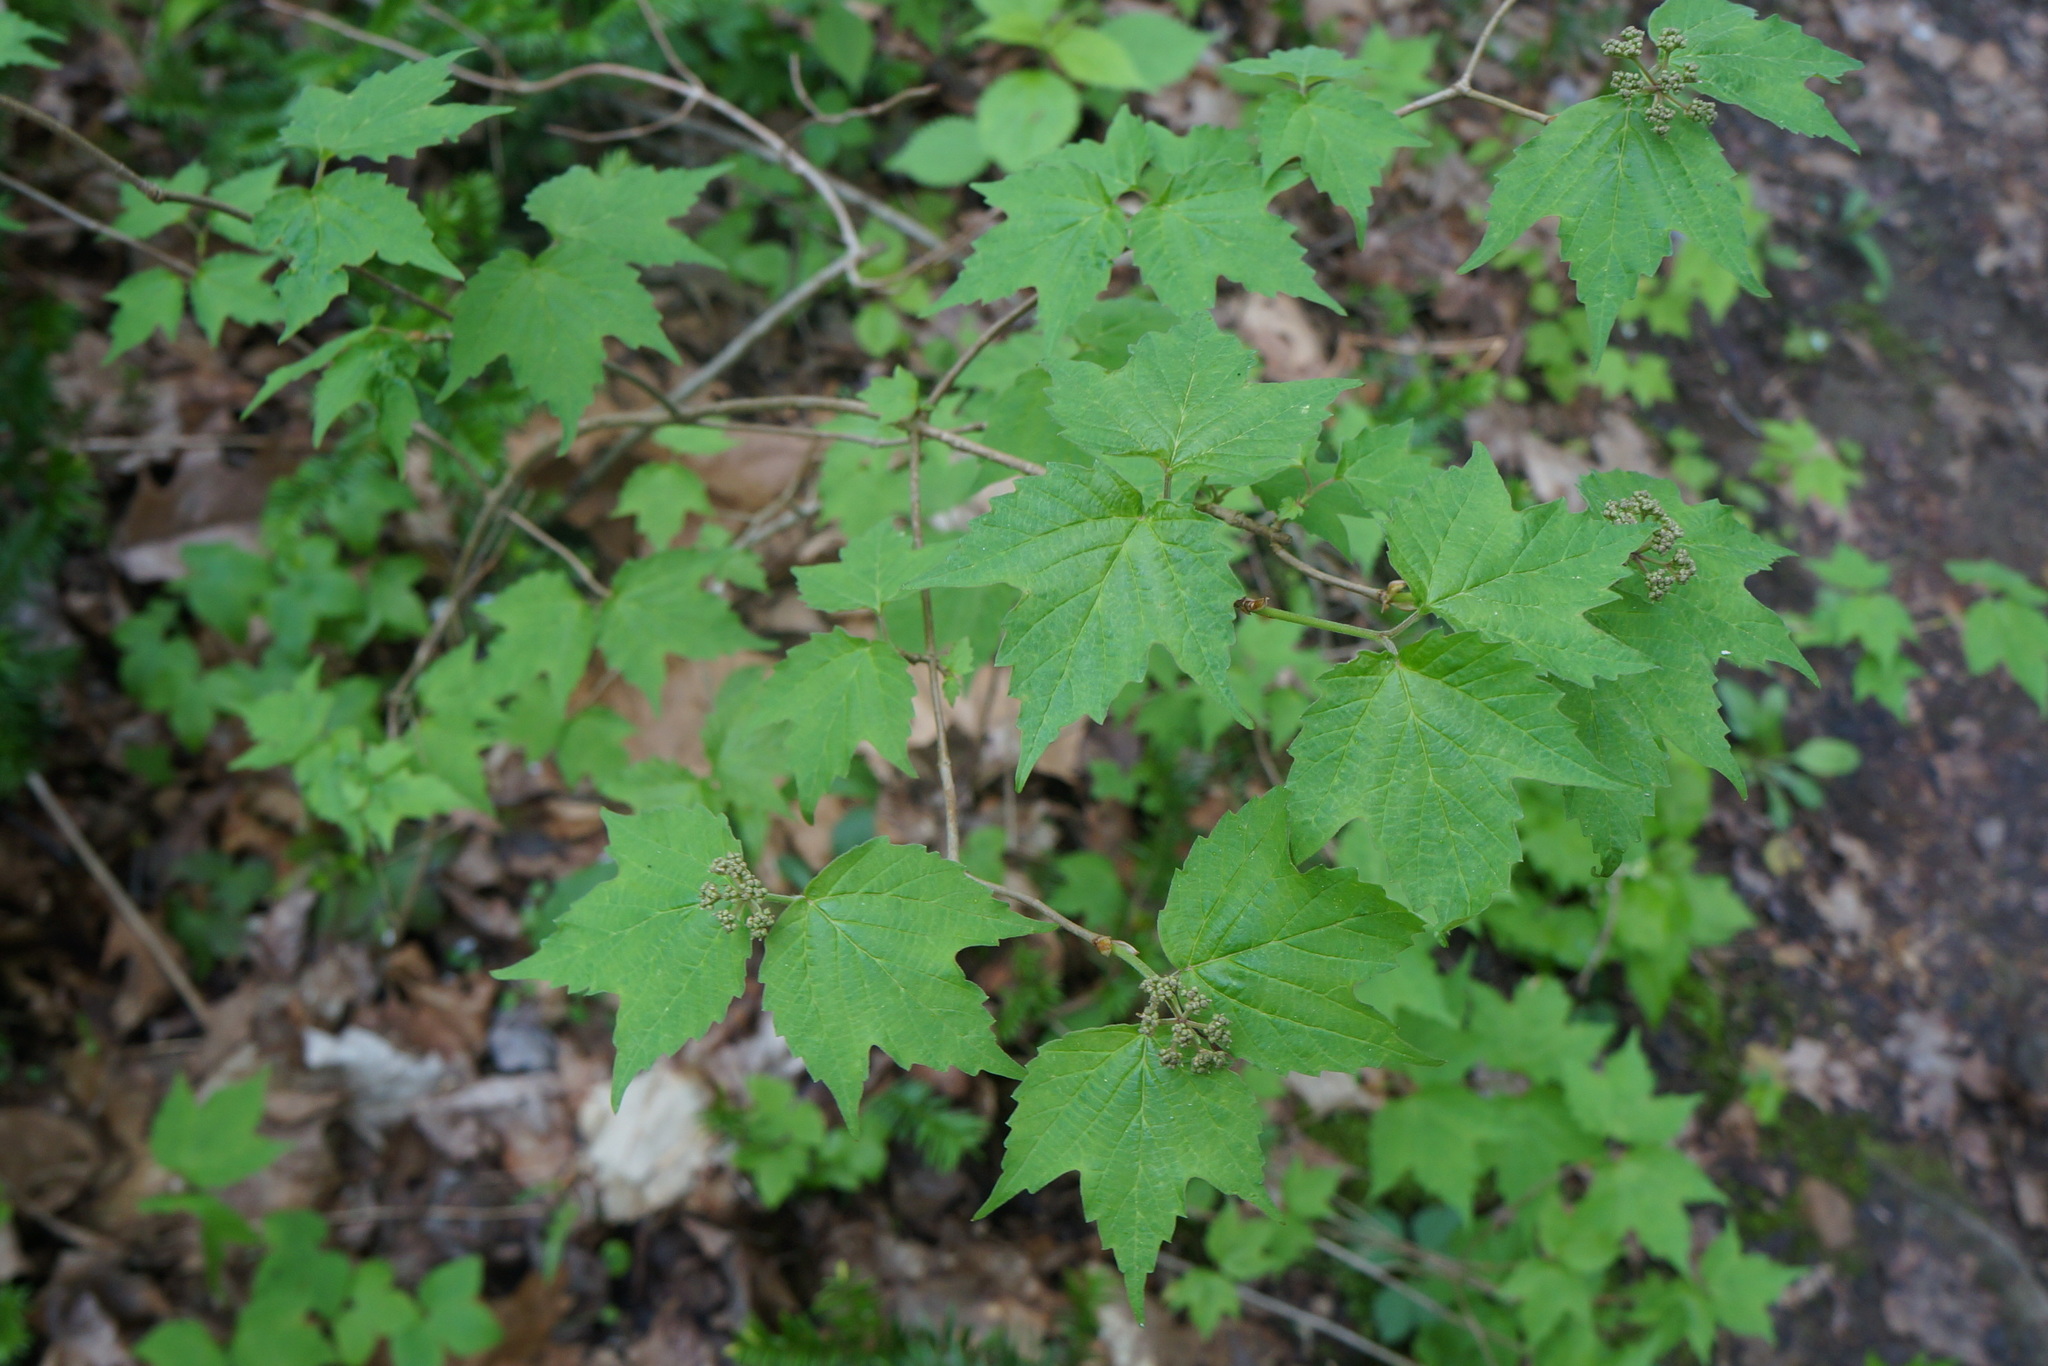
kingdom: Plantae
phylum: Tracheophyta
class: Magnoliopsida
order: Dipsacales
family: Viburnaceae
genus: Viburnum
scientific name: Viburnum acerifolium
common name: Dockmackie
